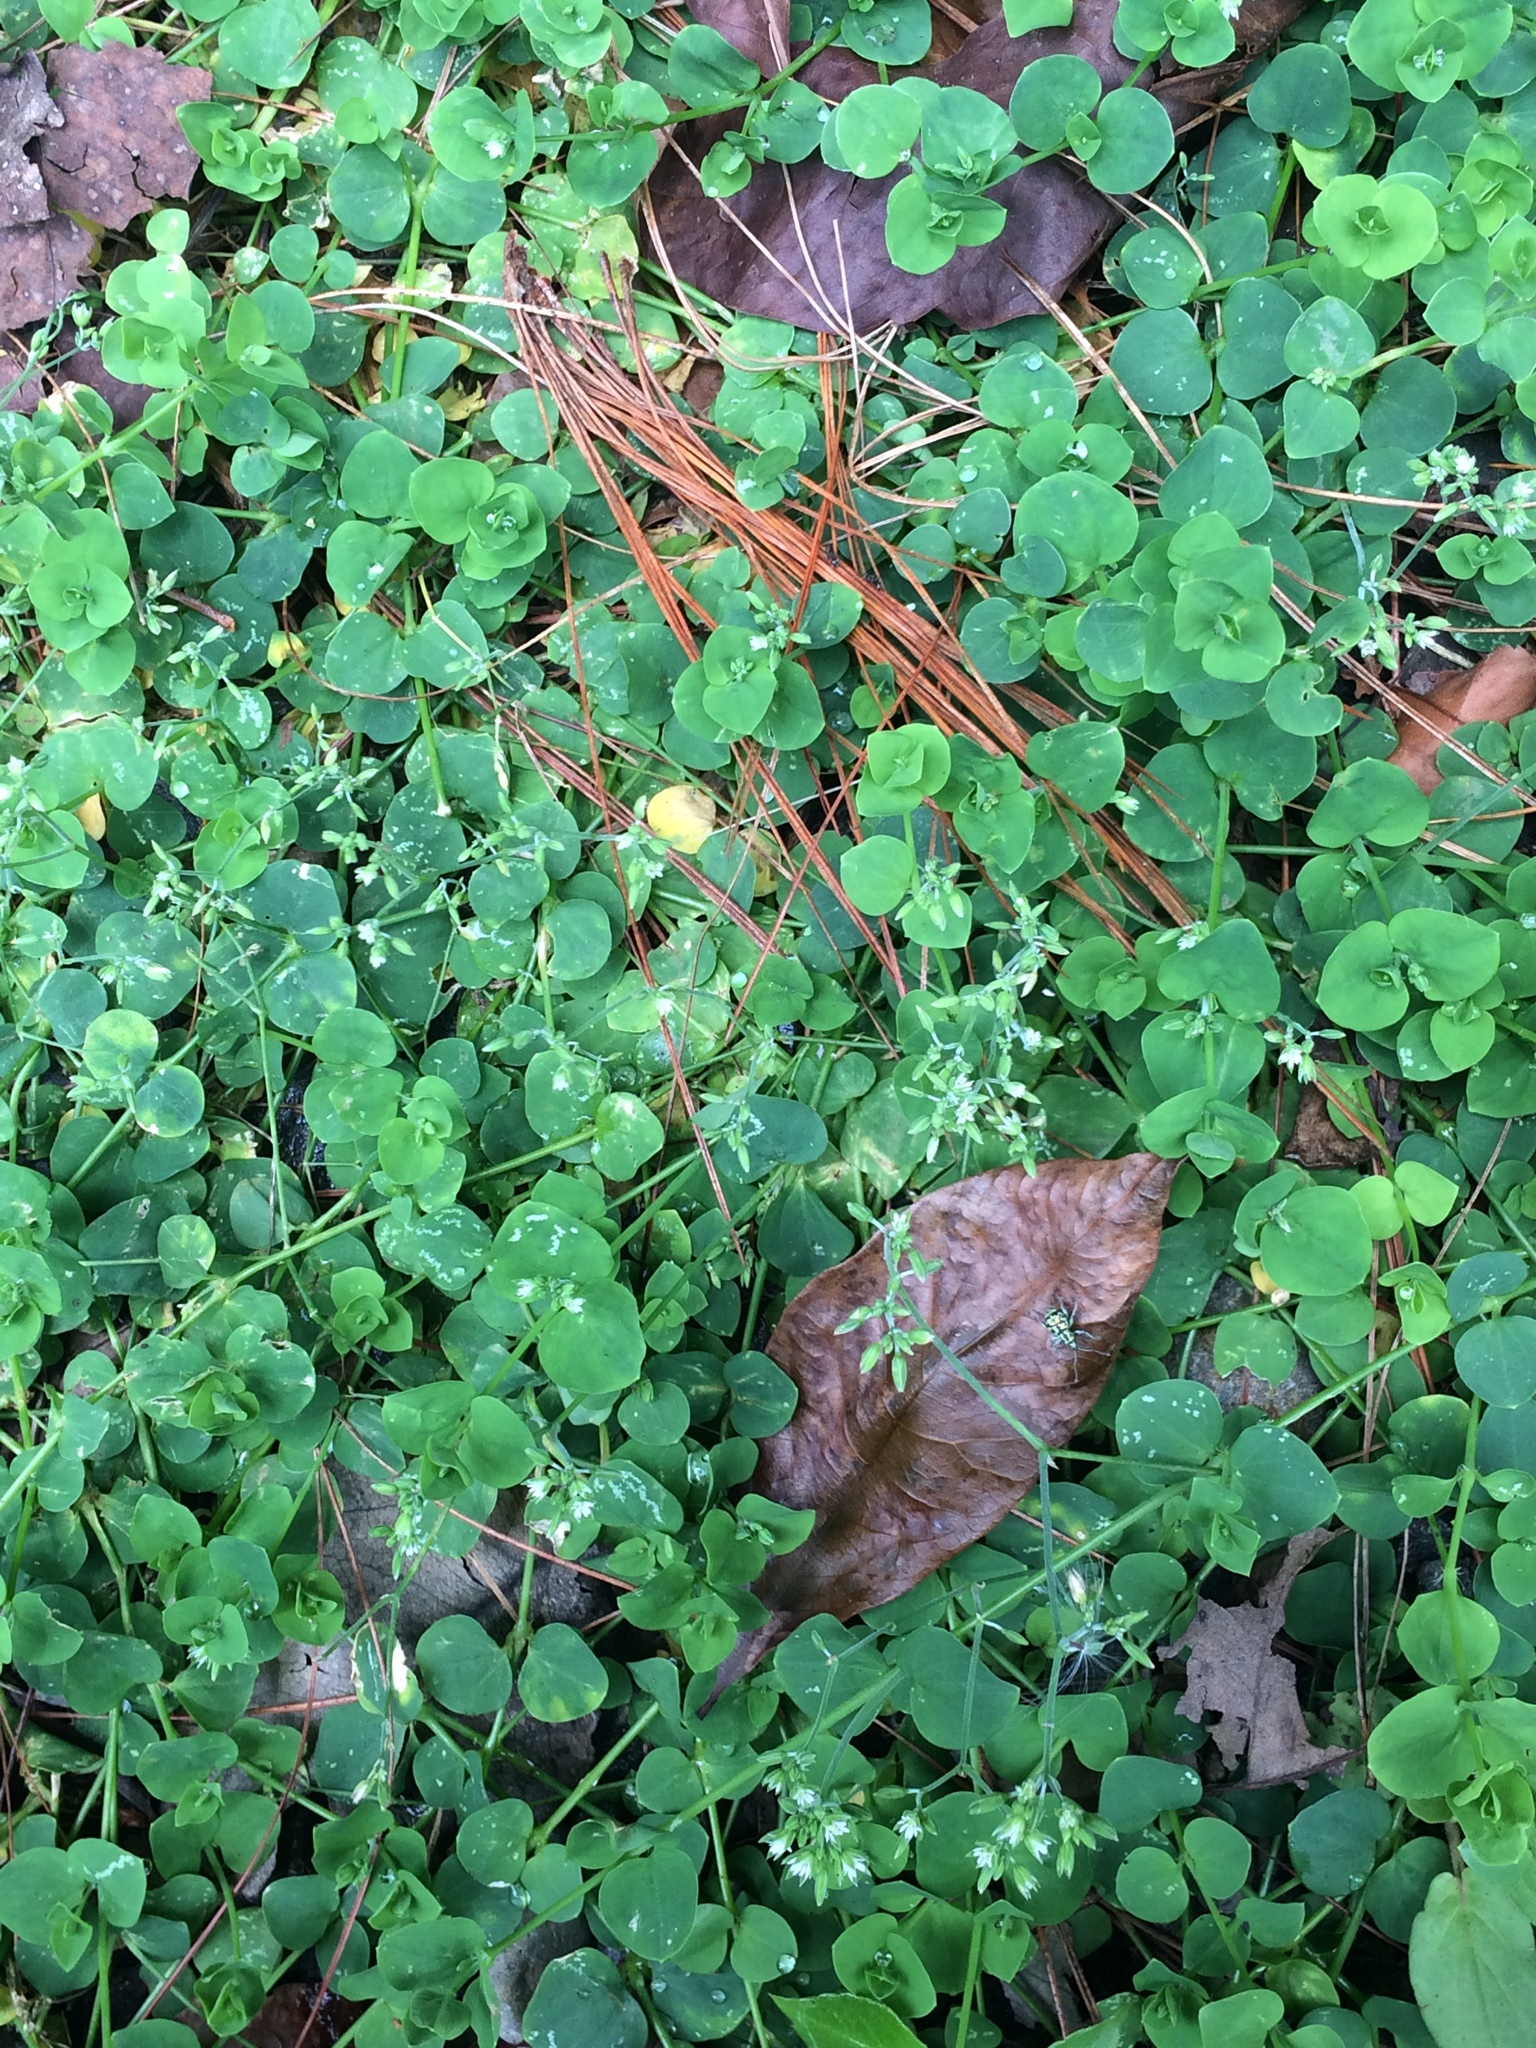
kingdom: Plantae
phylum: Tracheophyta
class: Magnoliopsida
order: Caryophyllales
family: Caryophyllaceae
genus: Drymaria
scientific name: Drymaria cordata
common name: Whitesnow
